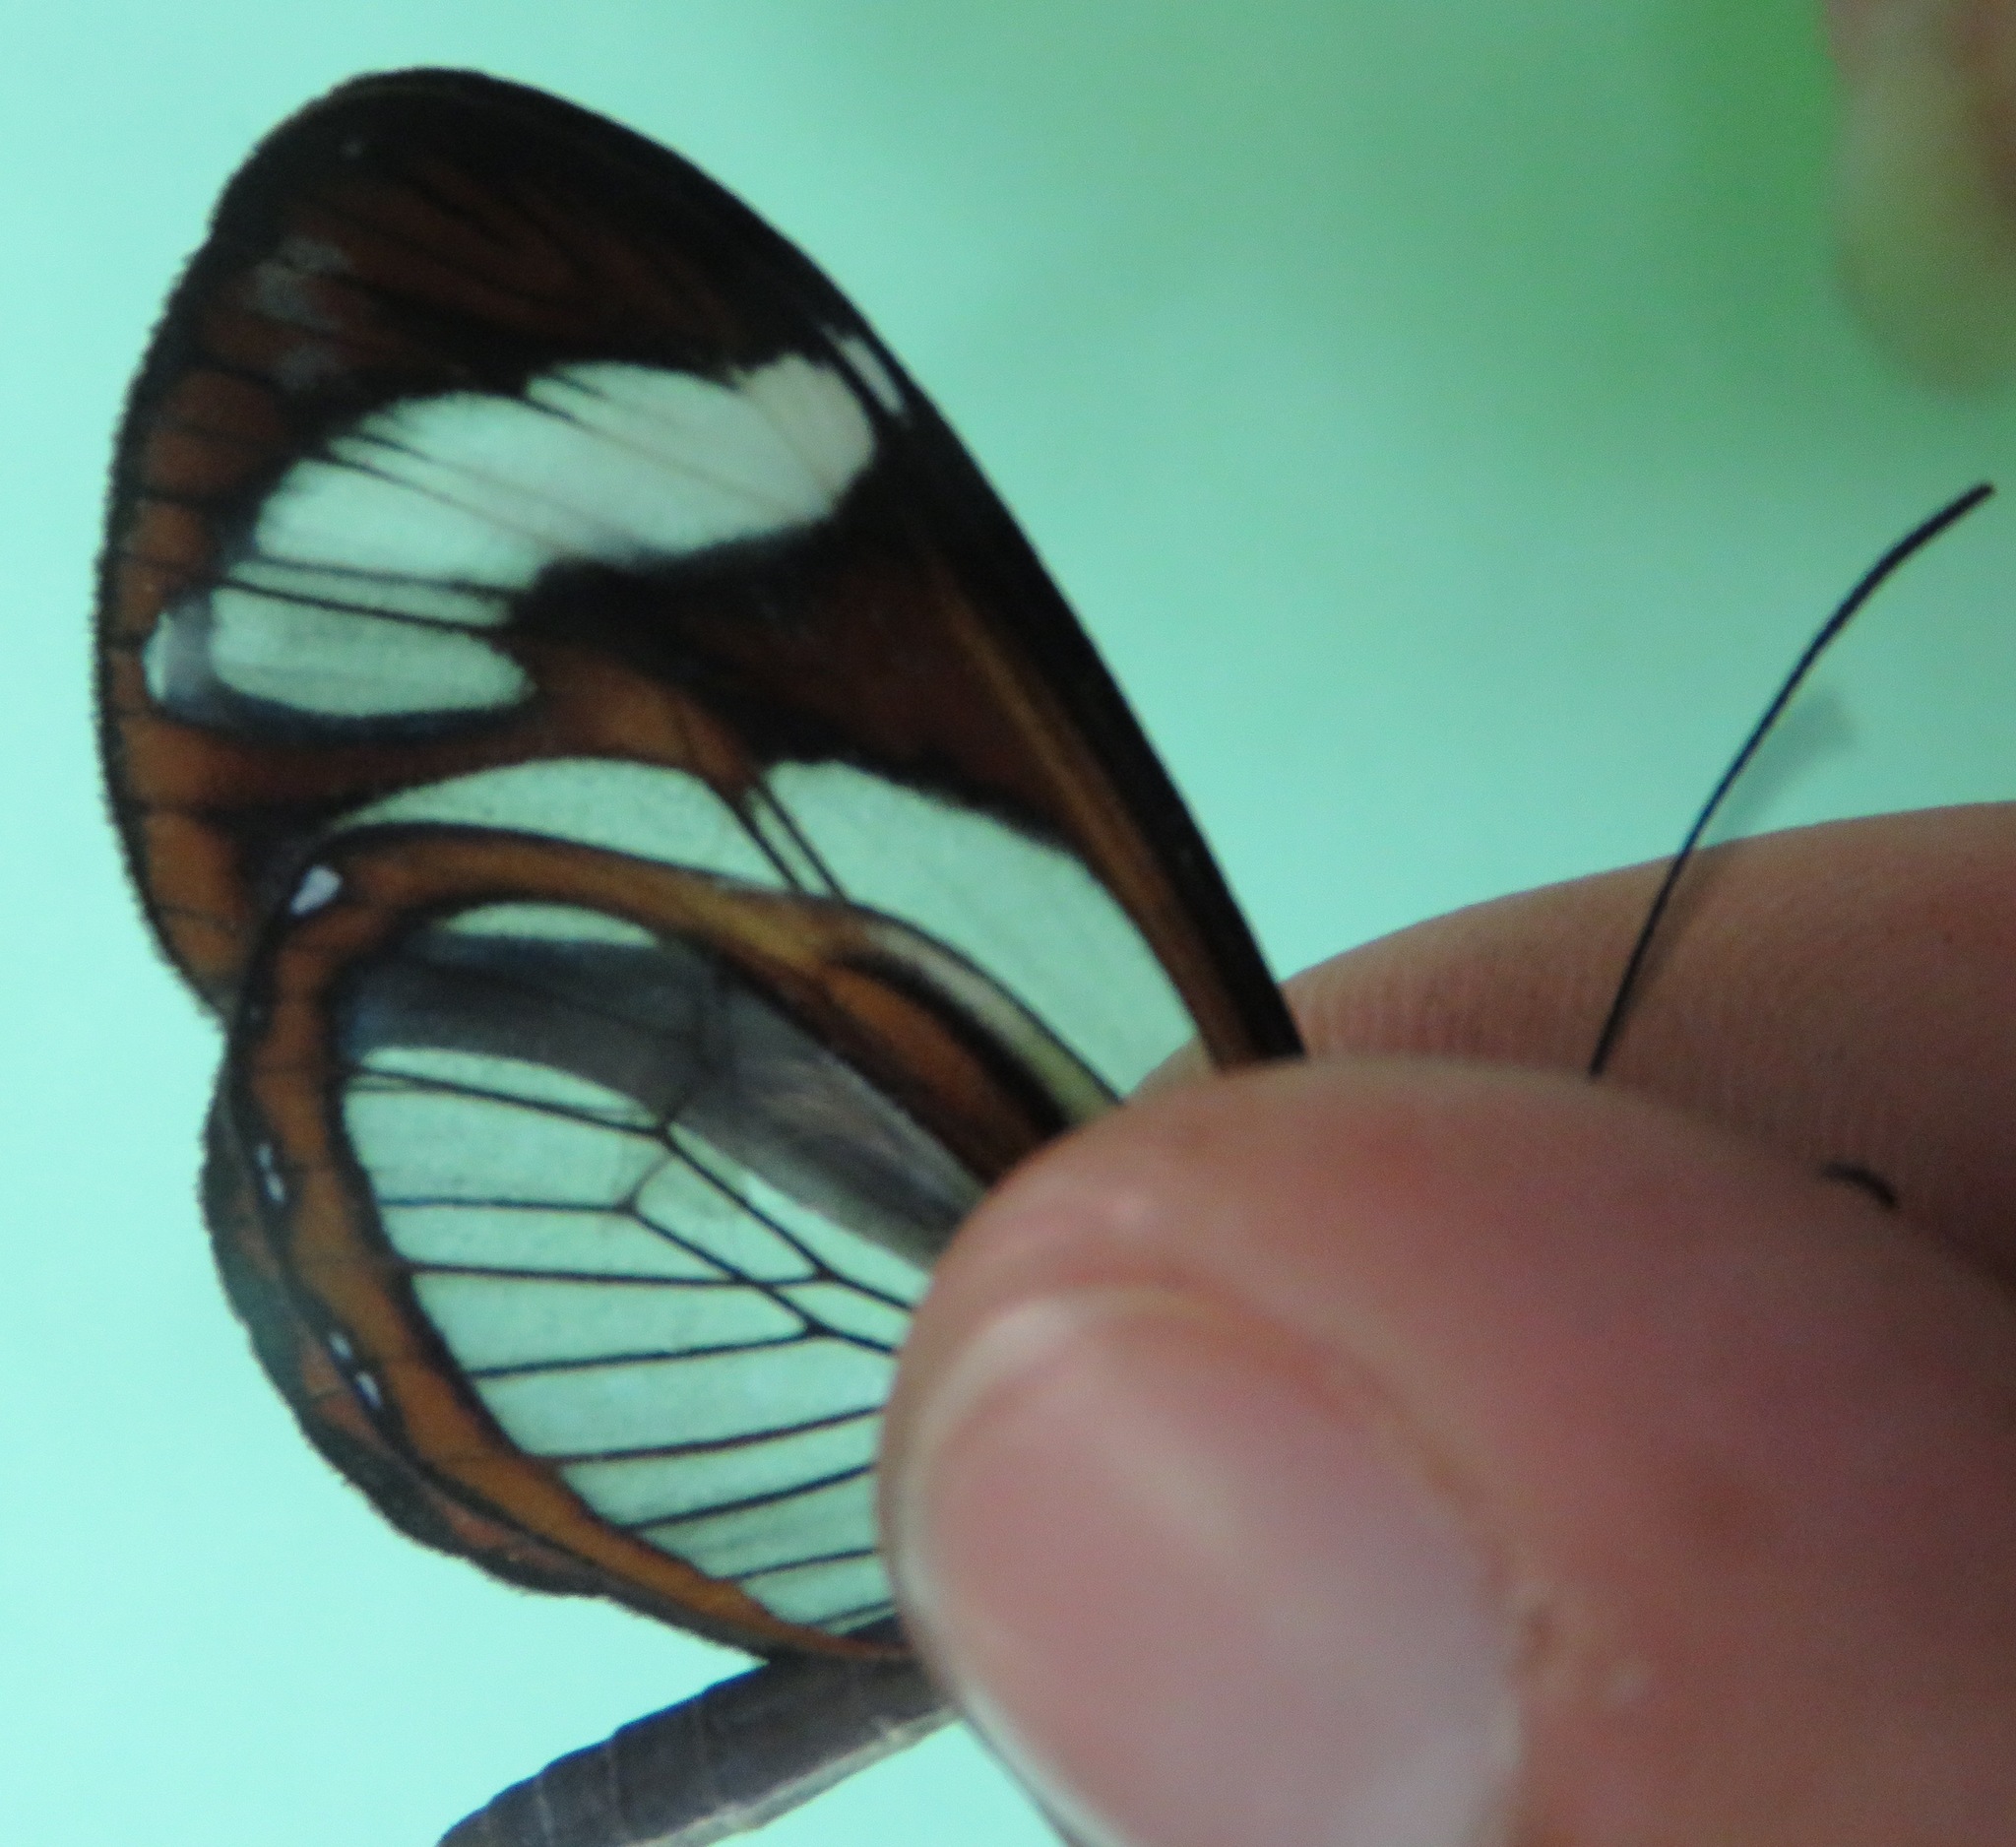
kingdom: Animalia
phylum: Arthropoda
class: Insecta
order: Lepidoptera
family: Nymphalidae
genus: Ithomia
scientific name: Ithomia patilla
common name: Patilla clearwing
